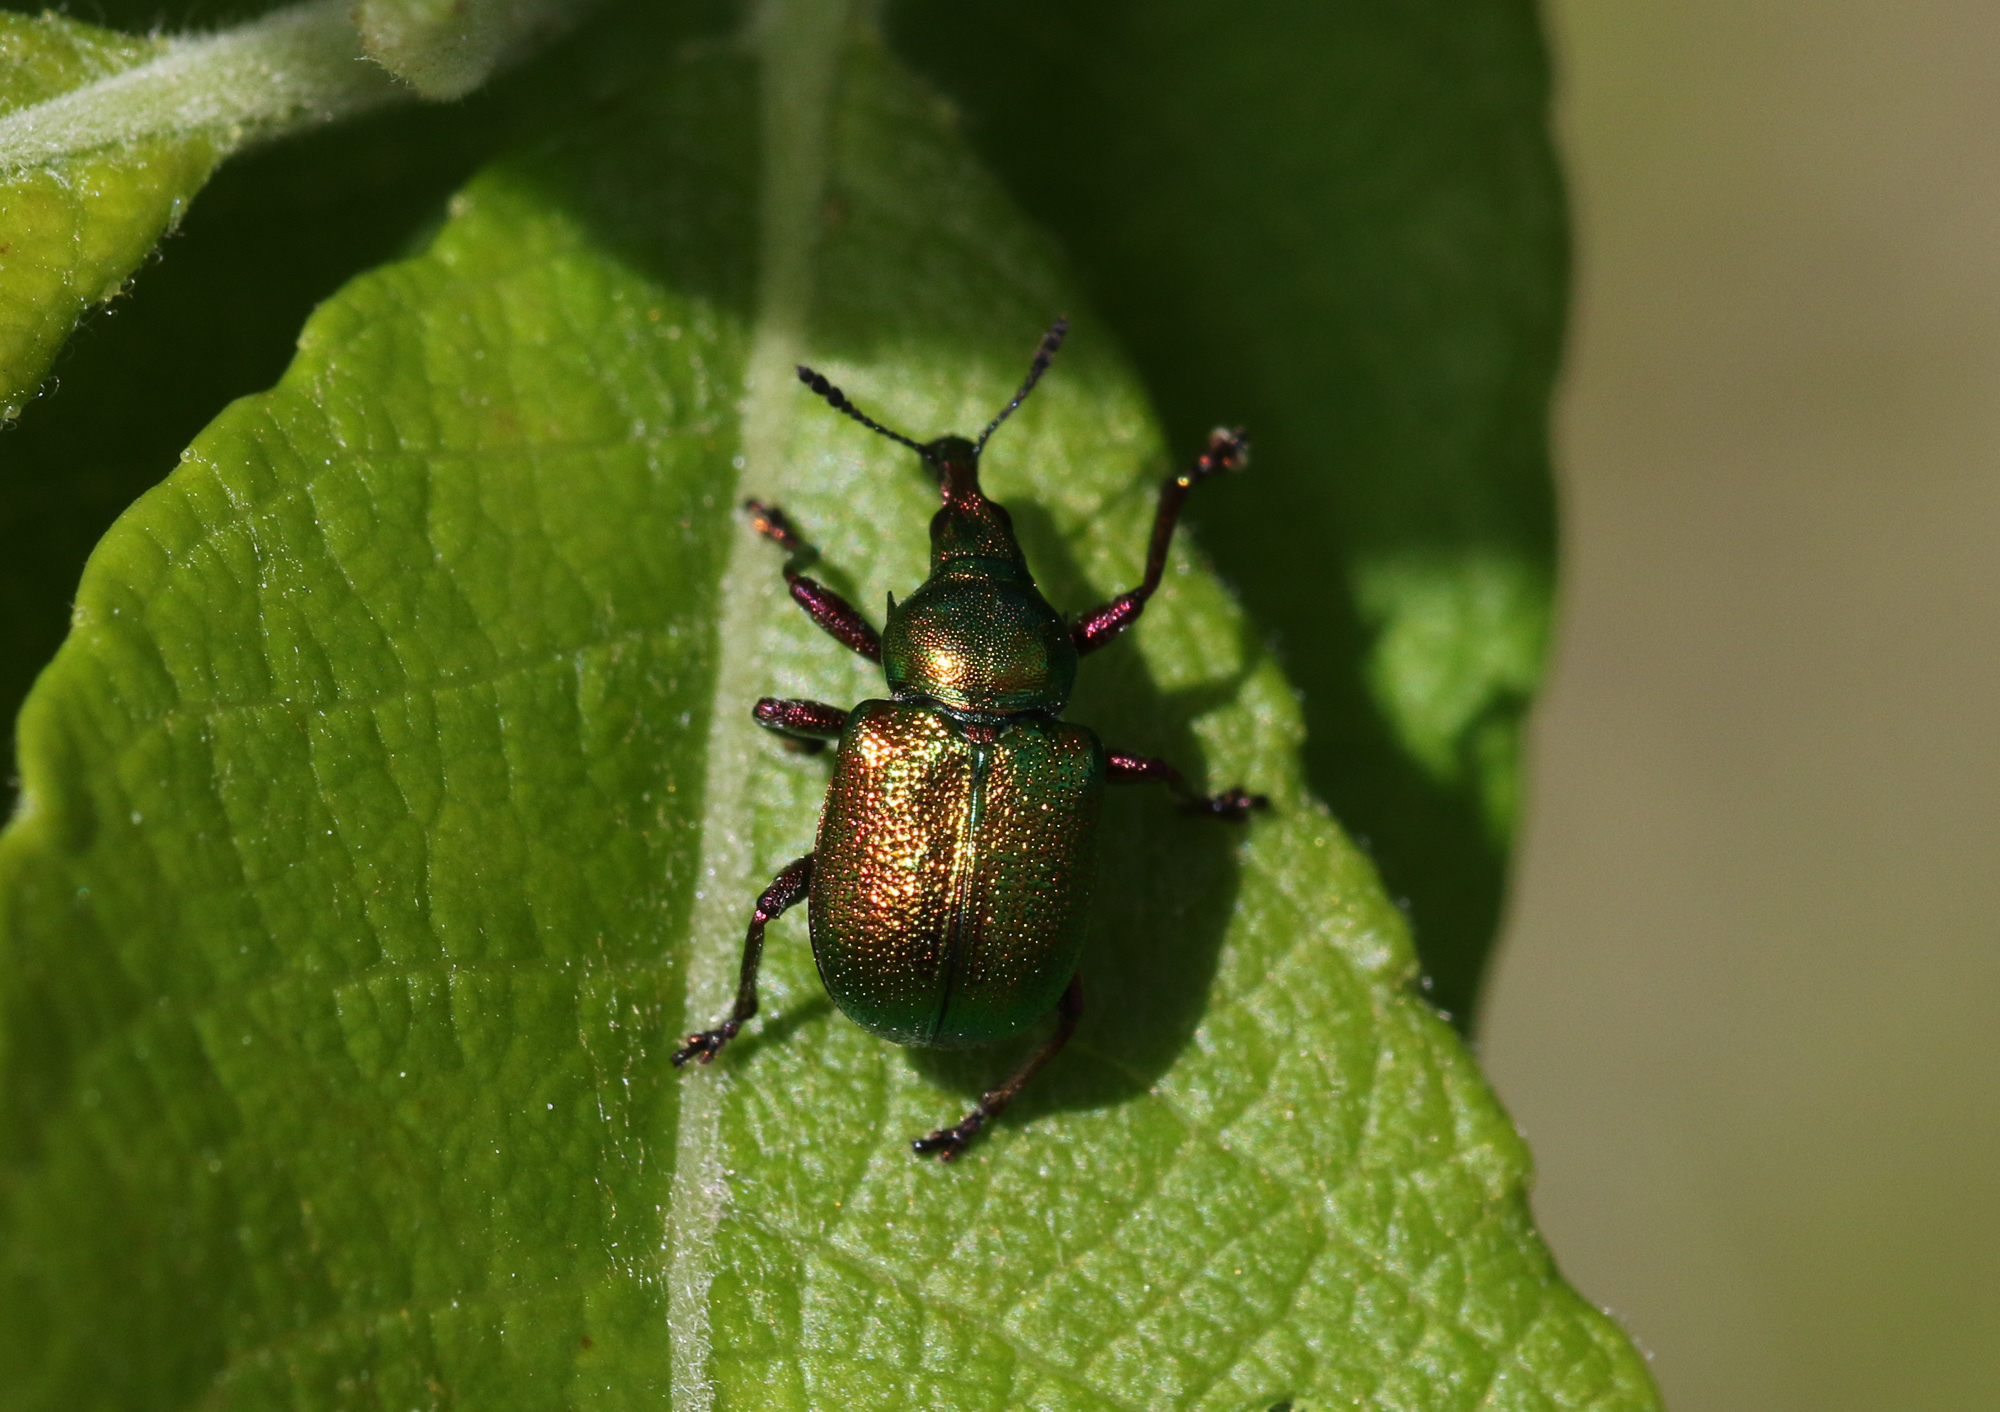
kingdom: Animalia
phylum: Arthropoda
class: Insecta
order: Coleoptera
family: Attelabidae
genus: Byctiscus
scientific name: Byctiscus populi
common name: Leaf-rolling weevil
